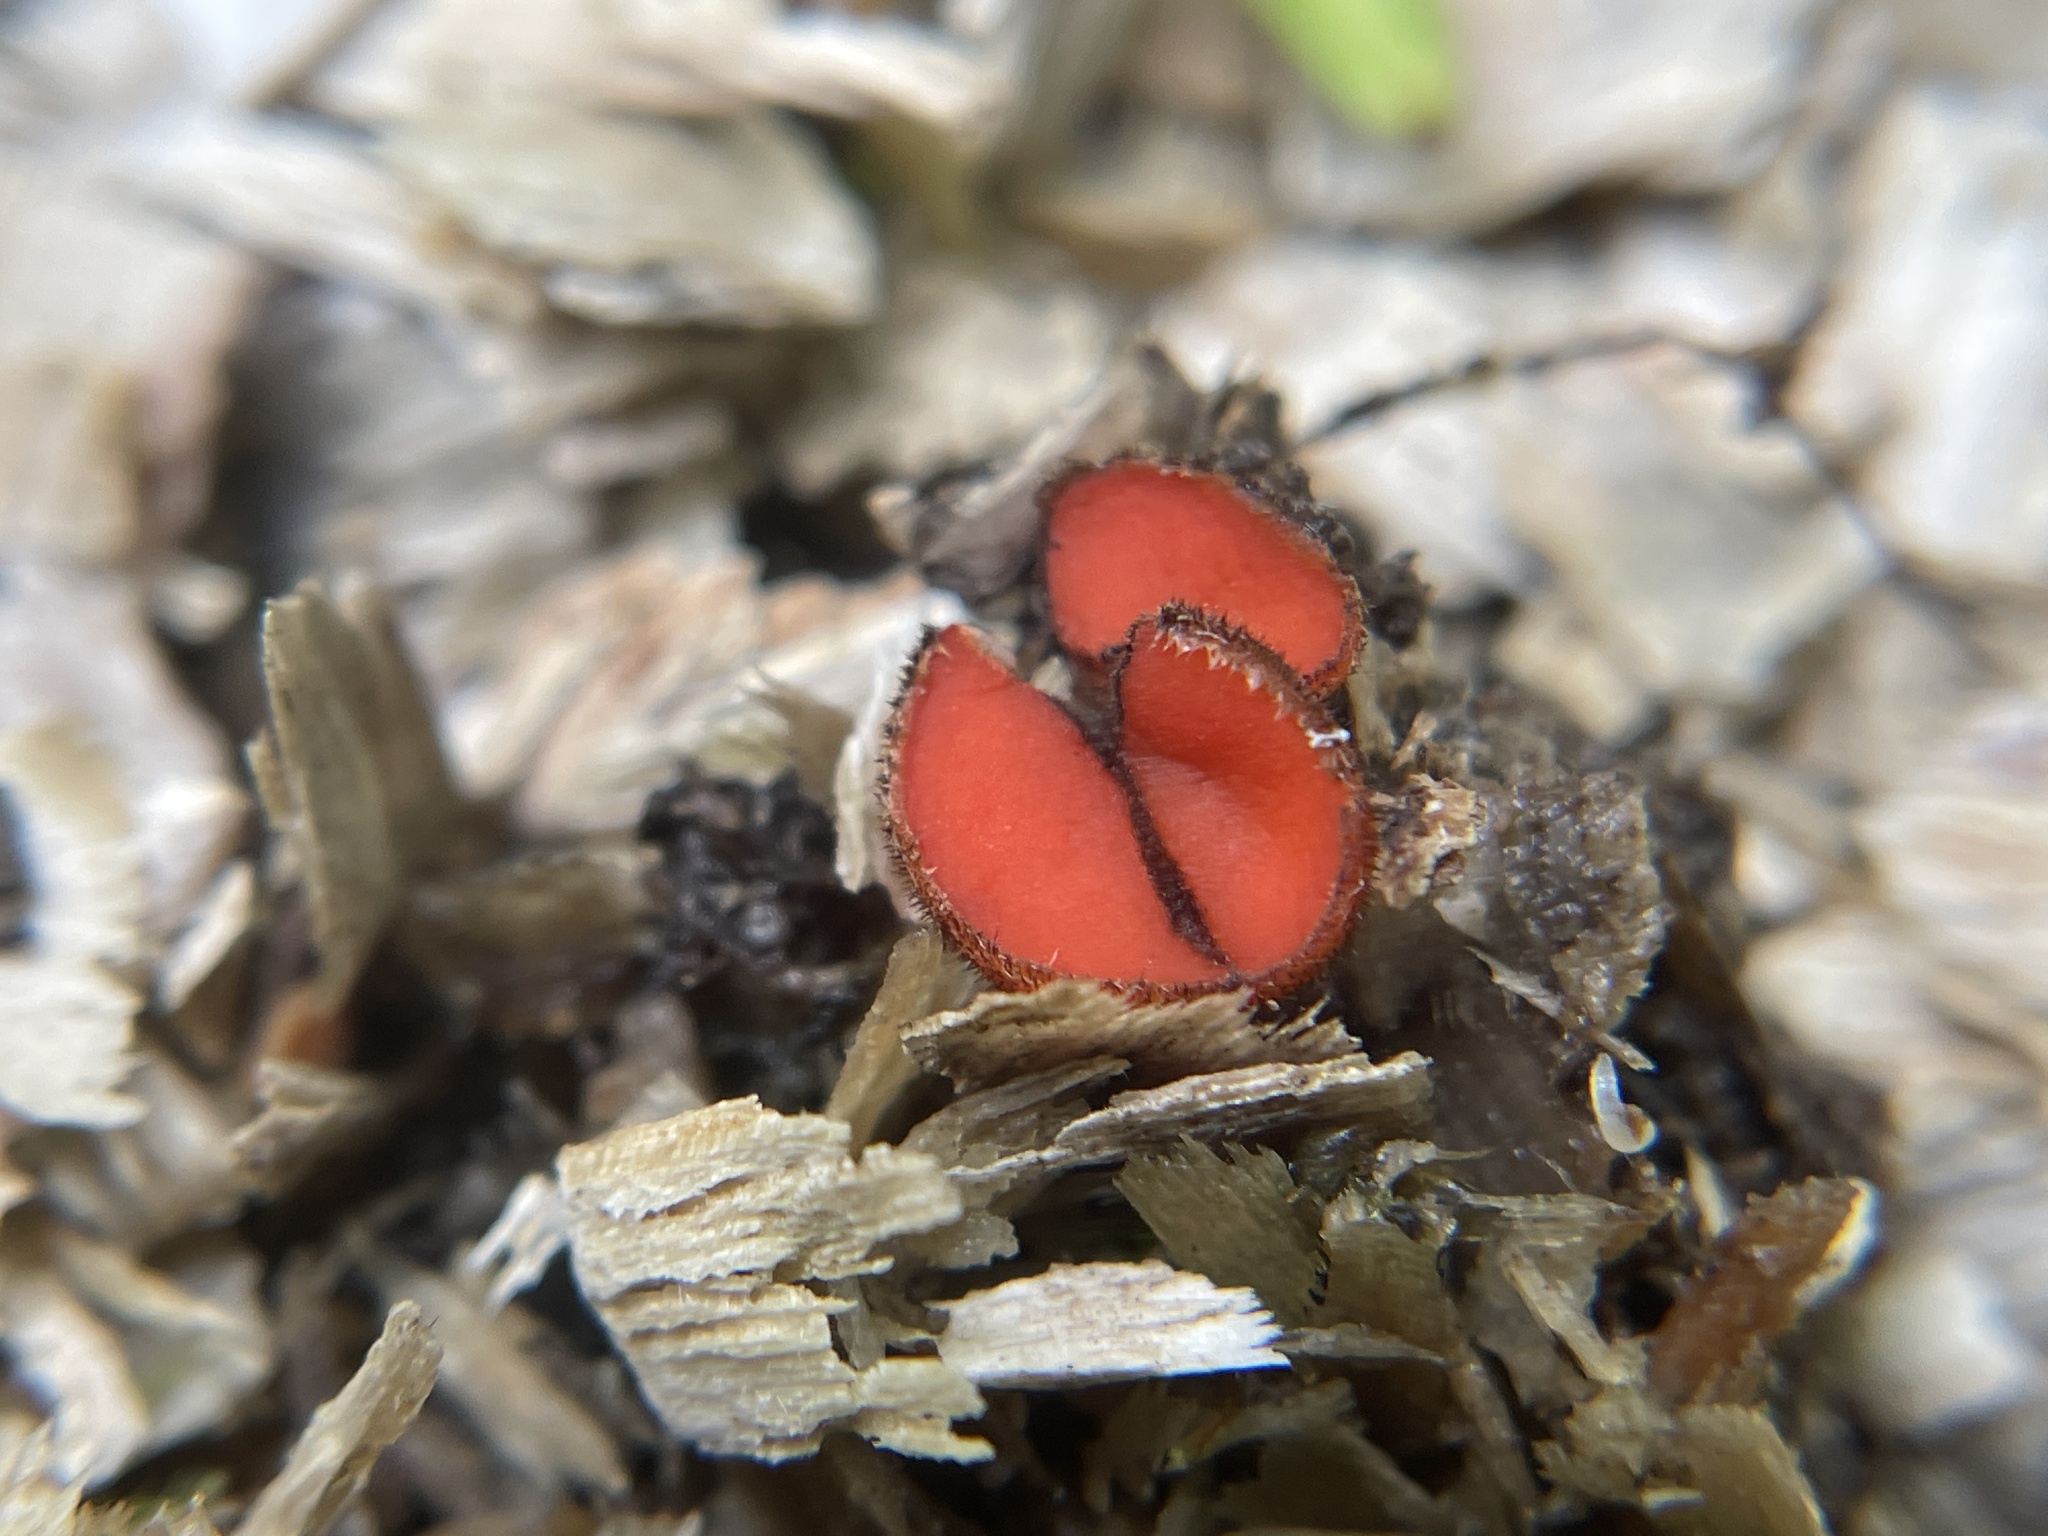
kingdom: Fungi
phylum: Ascomycota
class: Pezizomycetes
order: Pezizales
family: Pyronemataceae
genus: Scutellinia
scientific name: Scutellinia
